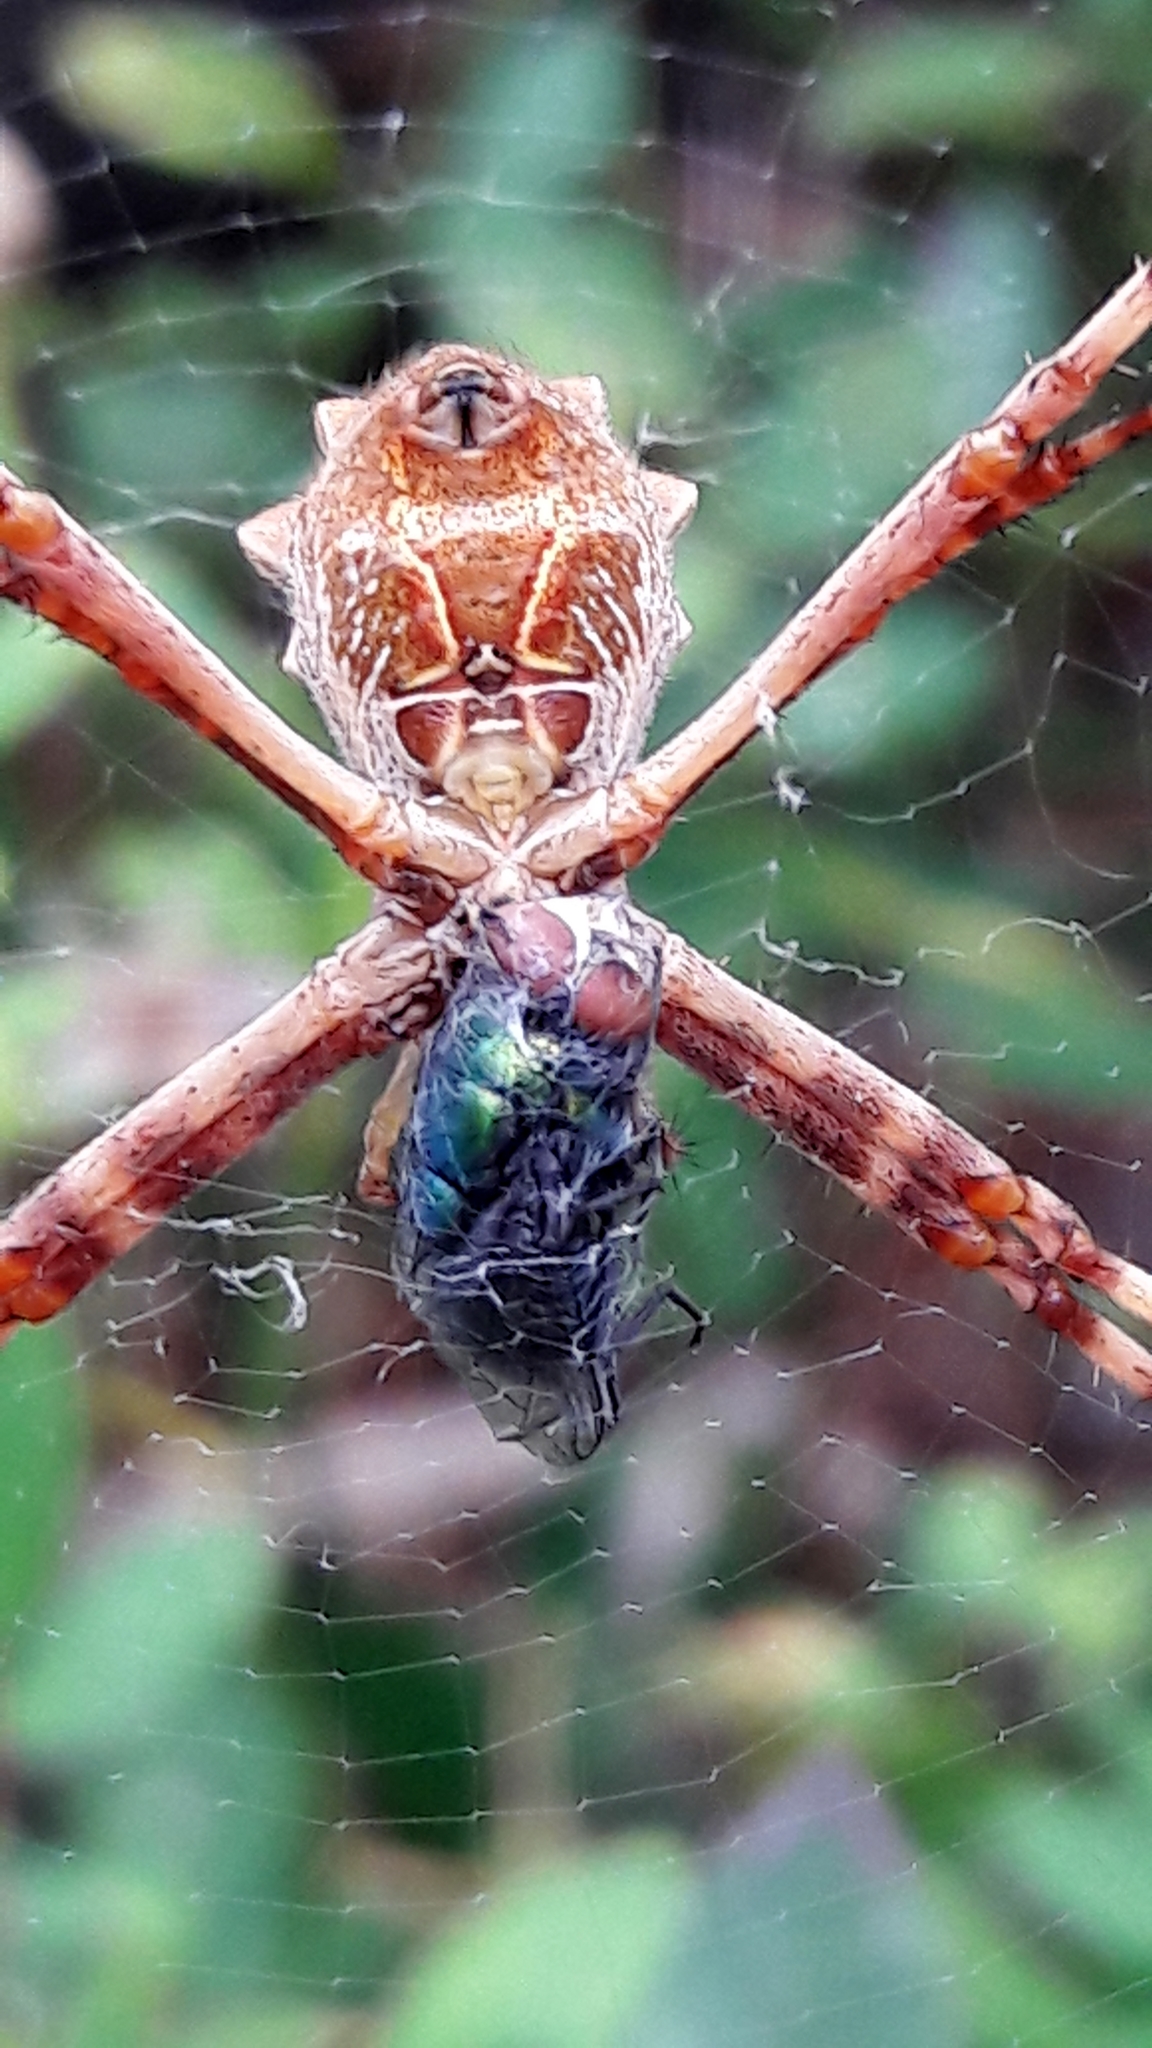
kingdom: Animalia
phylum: Arthropoda
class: Arachnida
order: Araneae
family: Araneidae
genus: Argiope
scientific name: Argiope argentata
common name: Orb weavers
